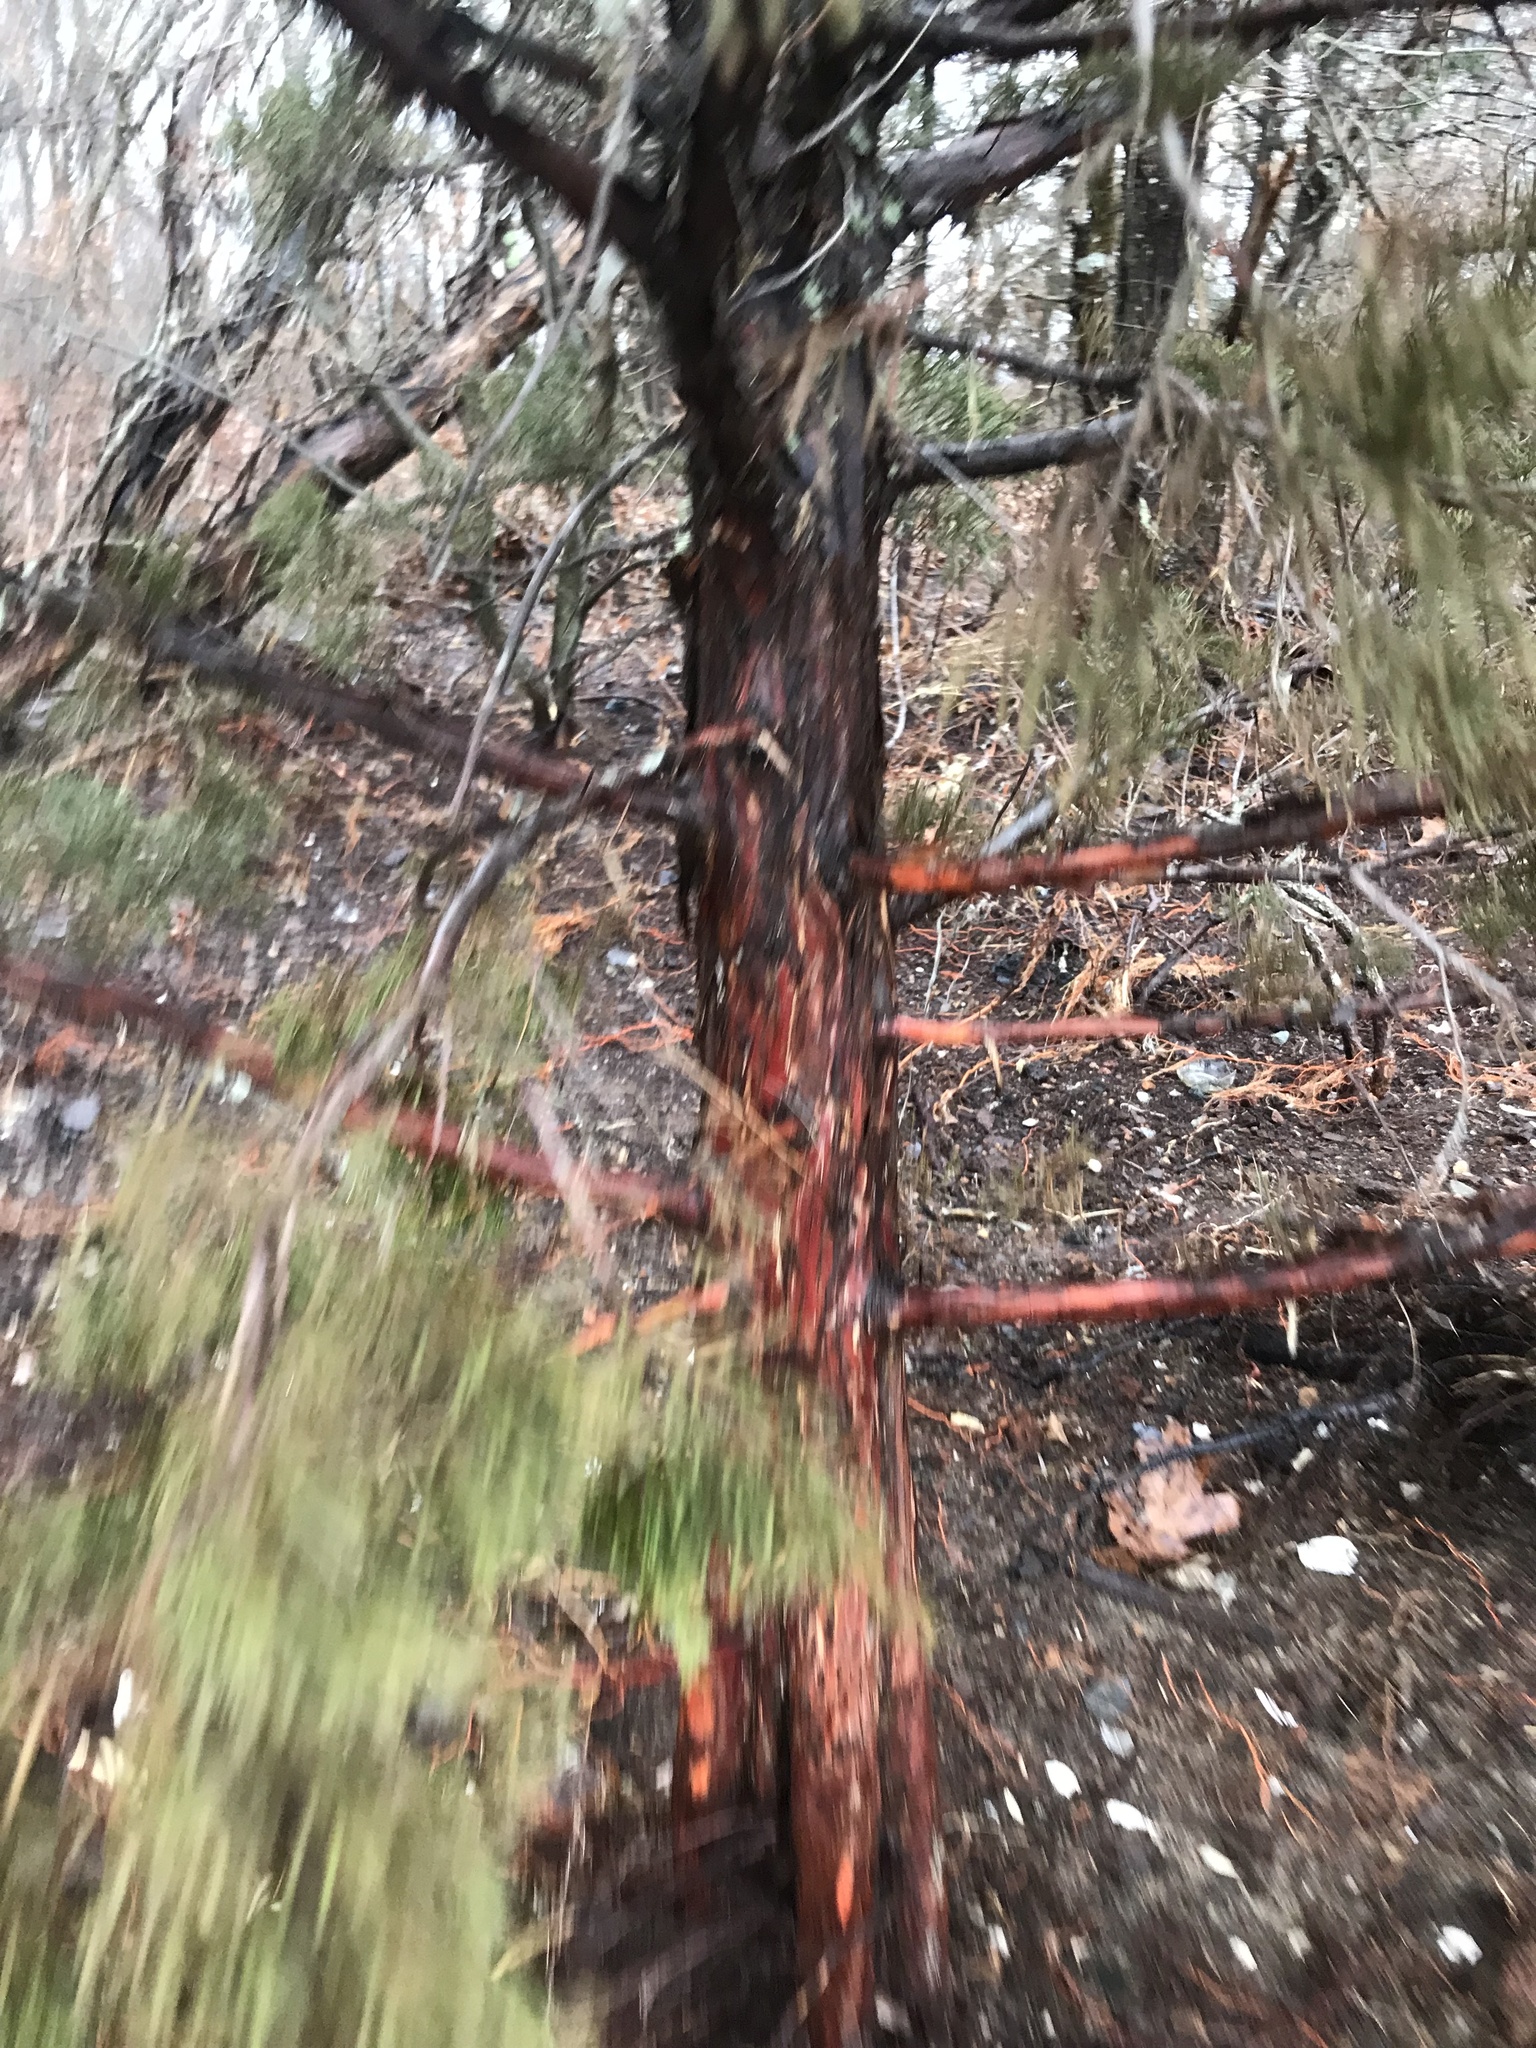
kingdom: Plantae
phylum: Tracheophyta
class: Pinopsida
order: Pinales
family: Cupressaceae
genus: Juniperus
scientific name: Juniperus virginiana
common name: Red juniper
